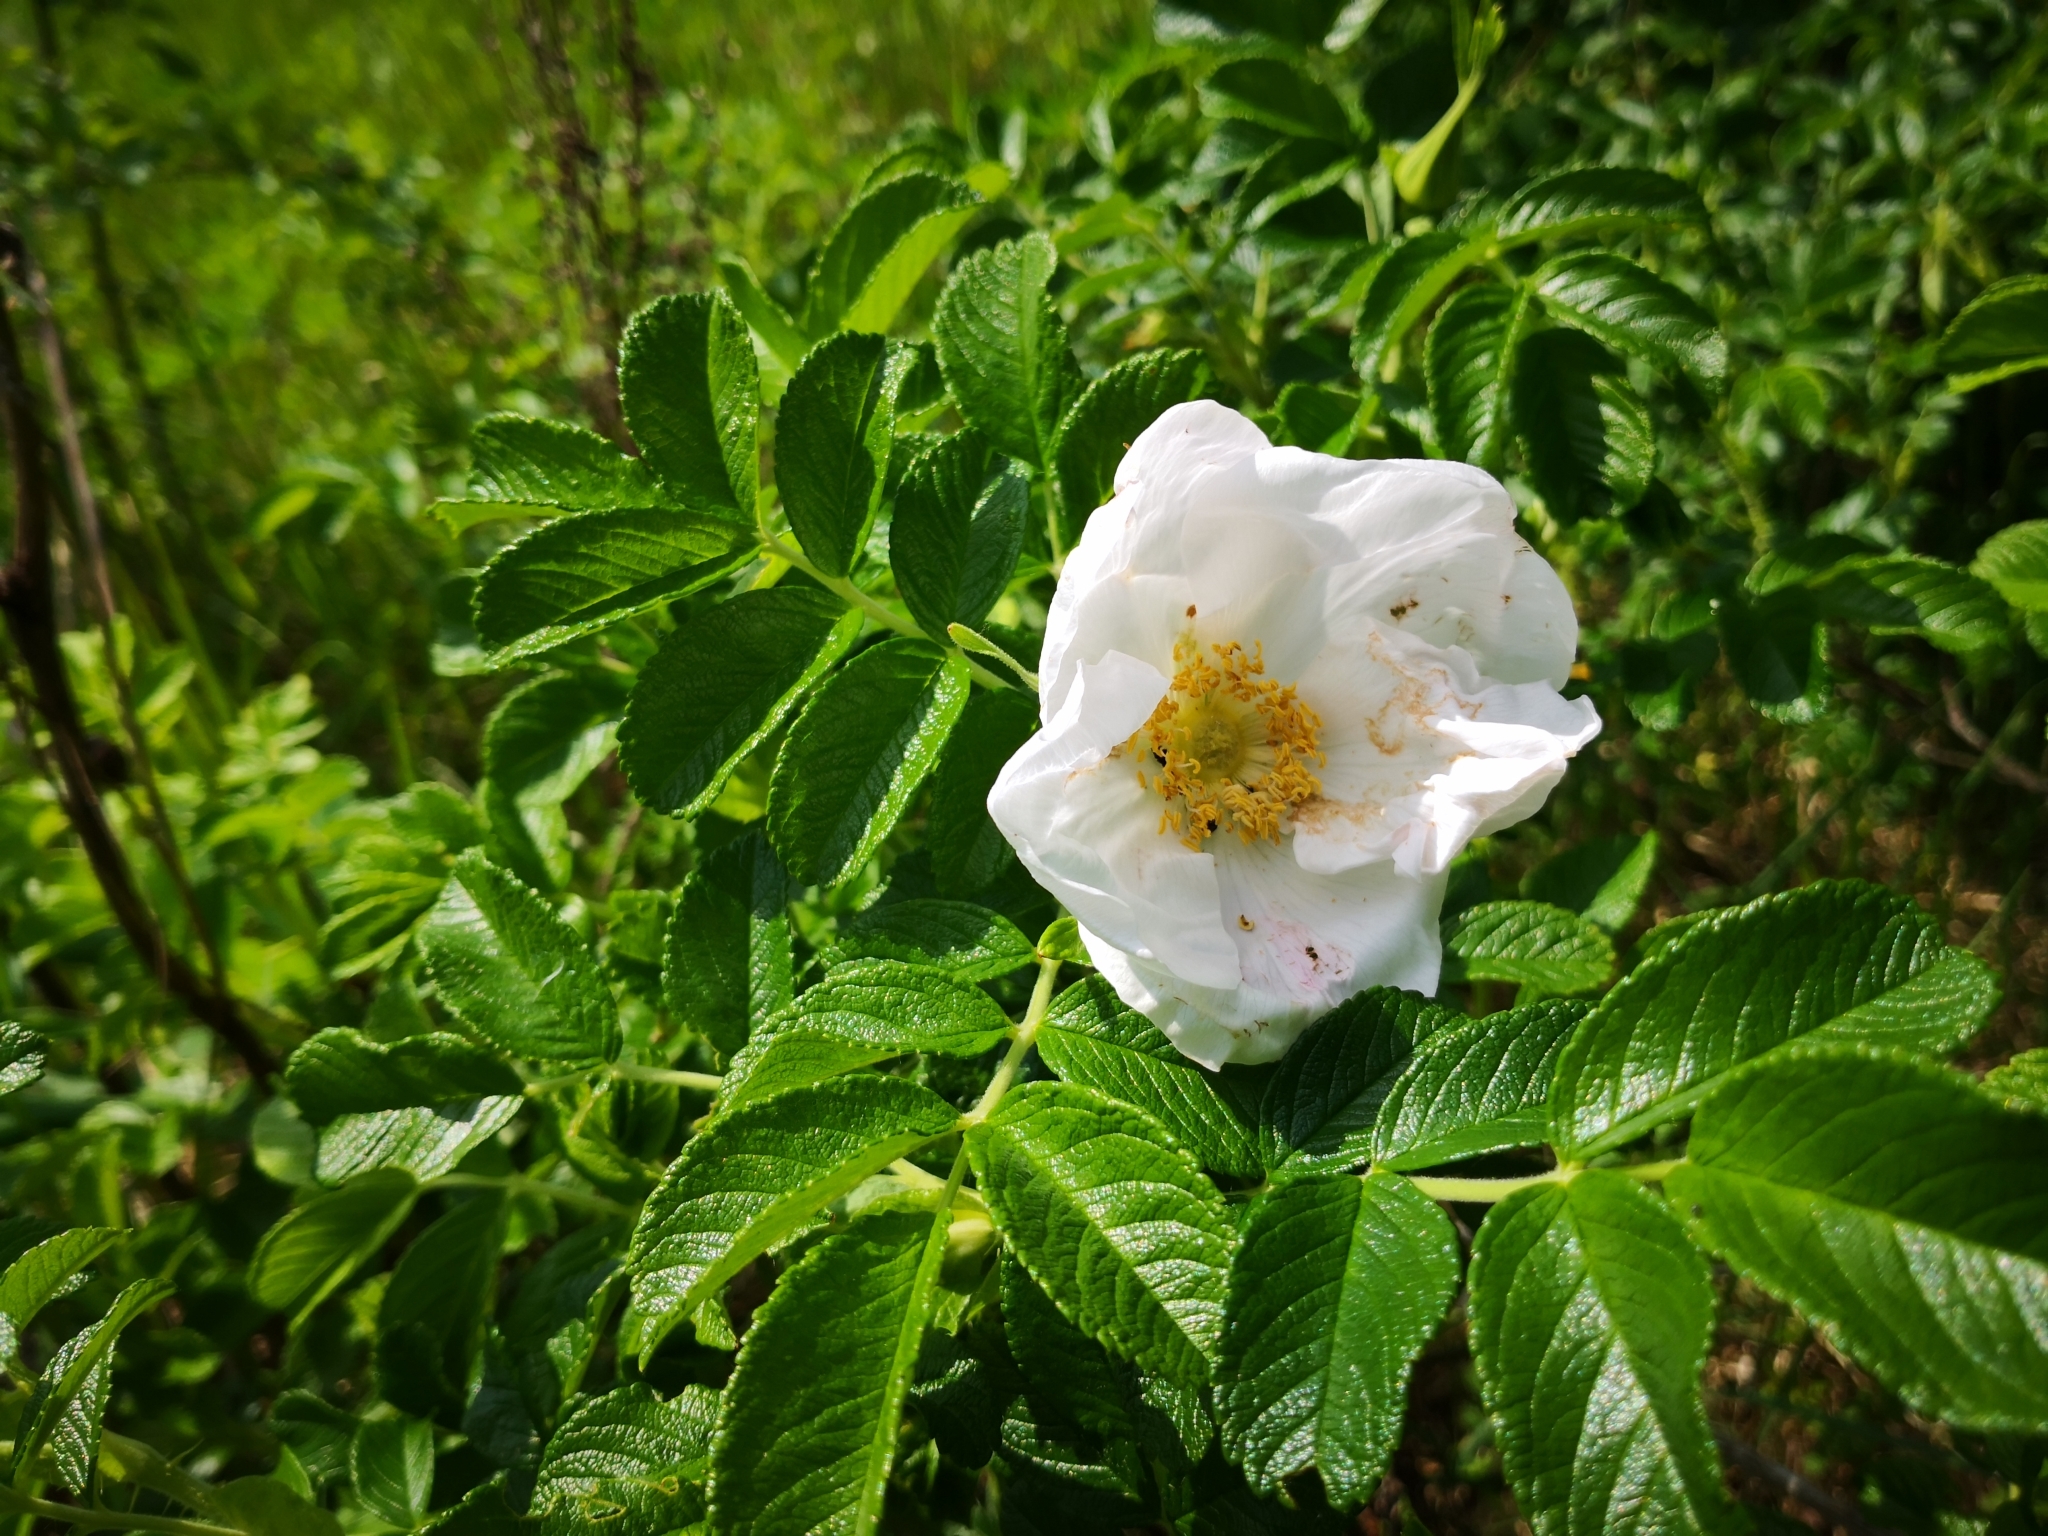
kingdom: Plantae
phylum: Tracheophyta
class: Magnoliopsida
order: Rosales
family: Rosaceae
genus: Rosa
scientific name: Rosa rugosa
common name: Japanese rose
